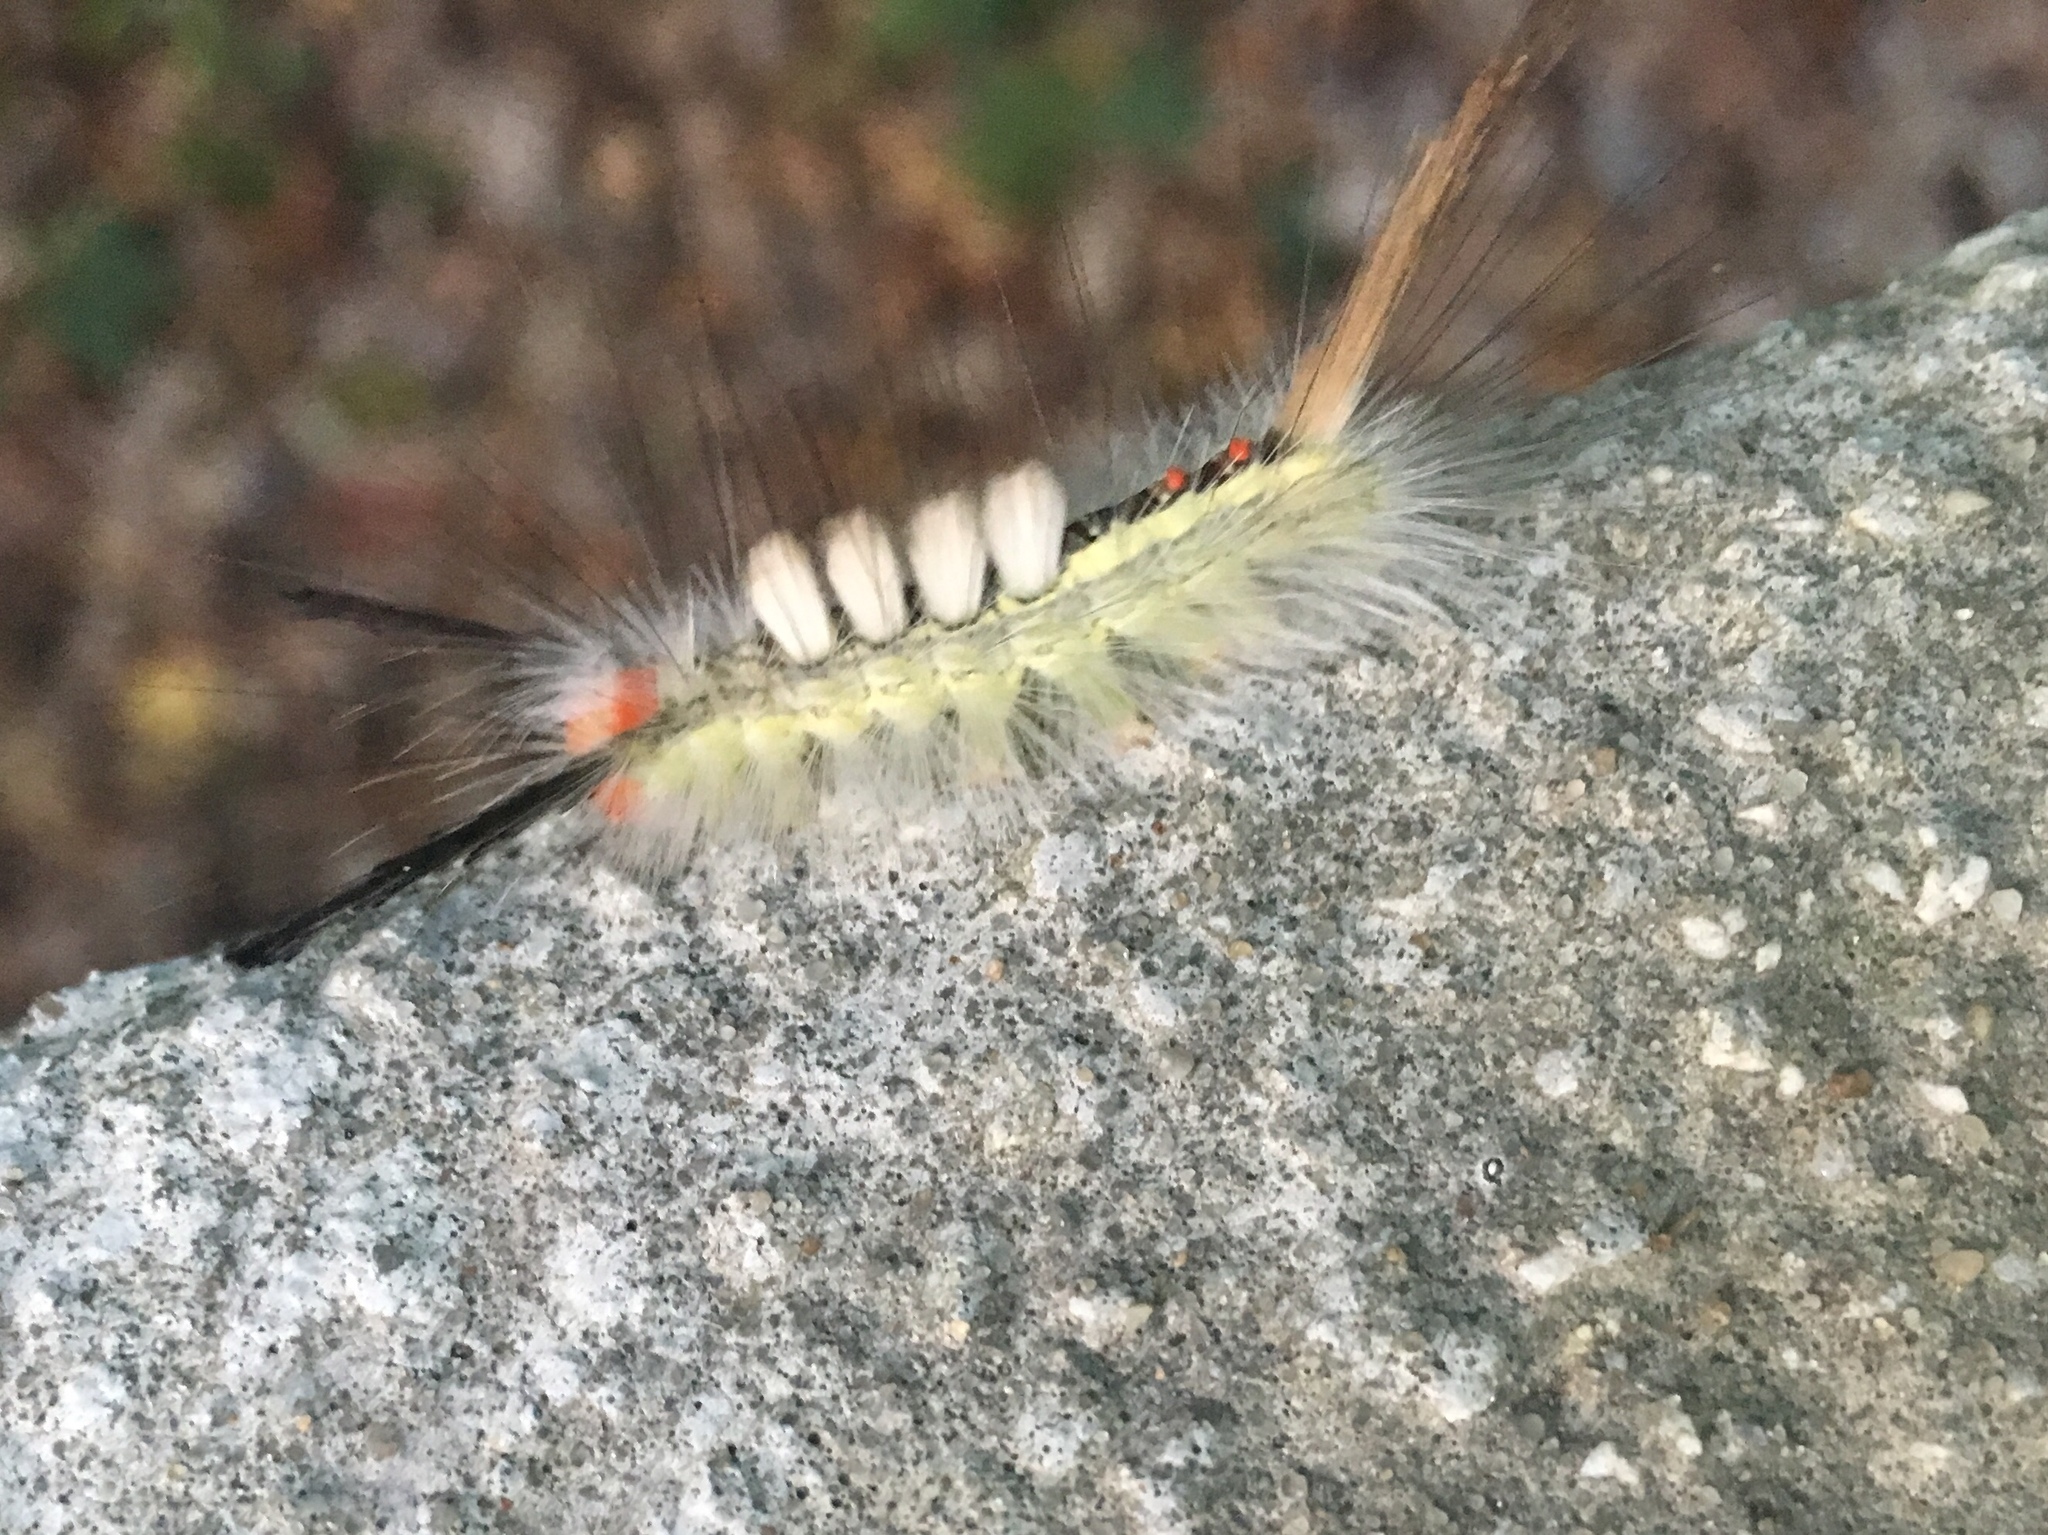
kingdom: Animalia
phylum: Arthropoda
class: Insecta
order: Lepidoptera
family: Erebidae
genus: Orgyia
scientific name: Orgyia leucostigma
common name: White-marked tussock moth
